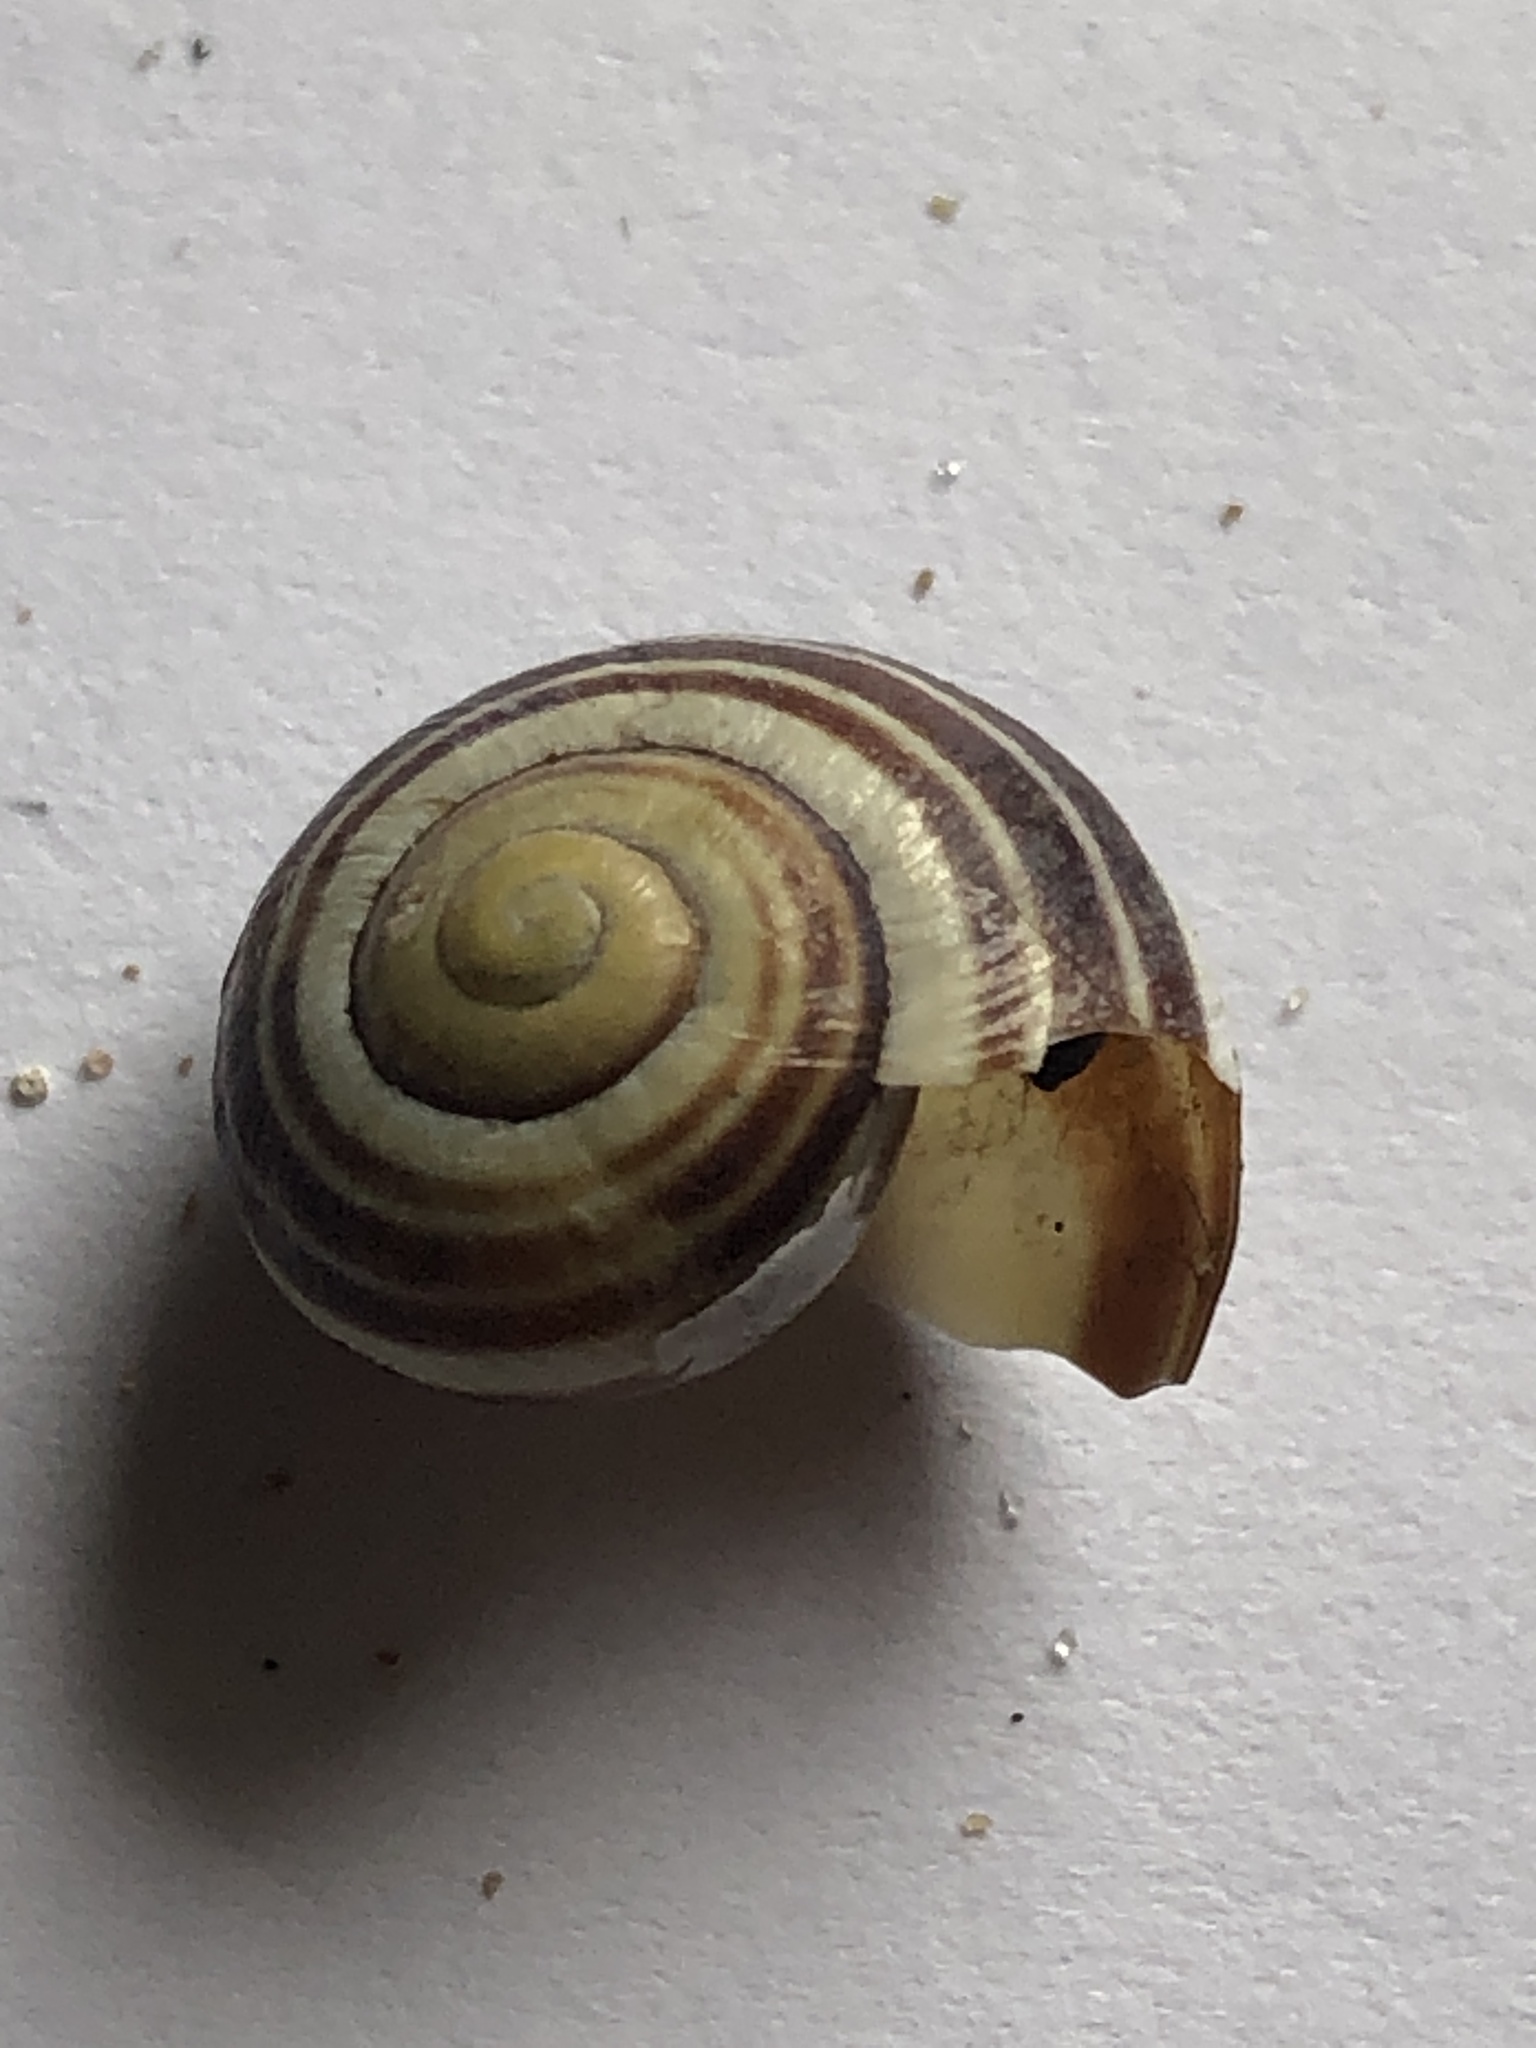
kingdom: Animalia
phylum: Mollusca
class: Gastropoda
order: Stylommatophora
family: Helicidae
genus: Cepaea
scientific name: Cepaea
